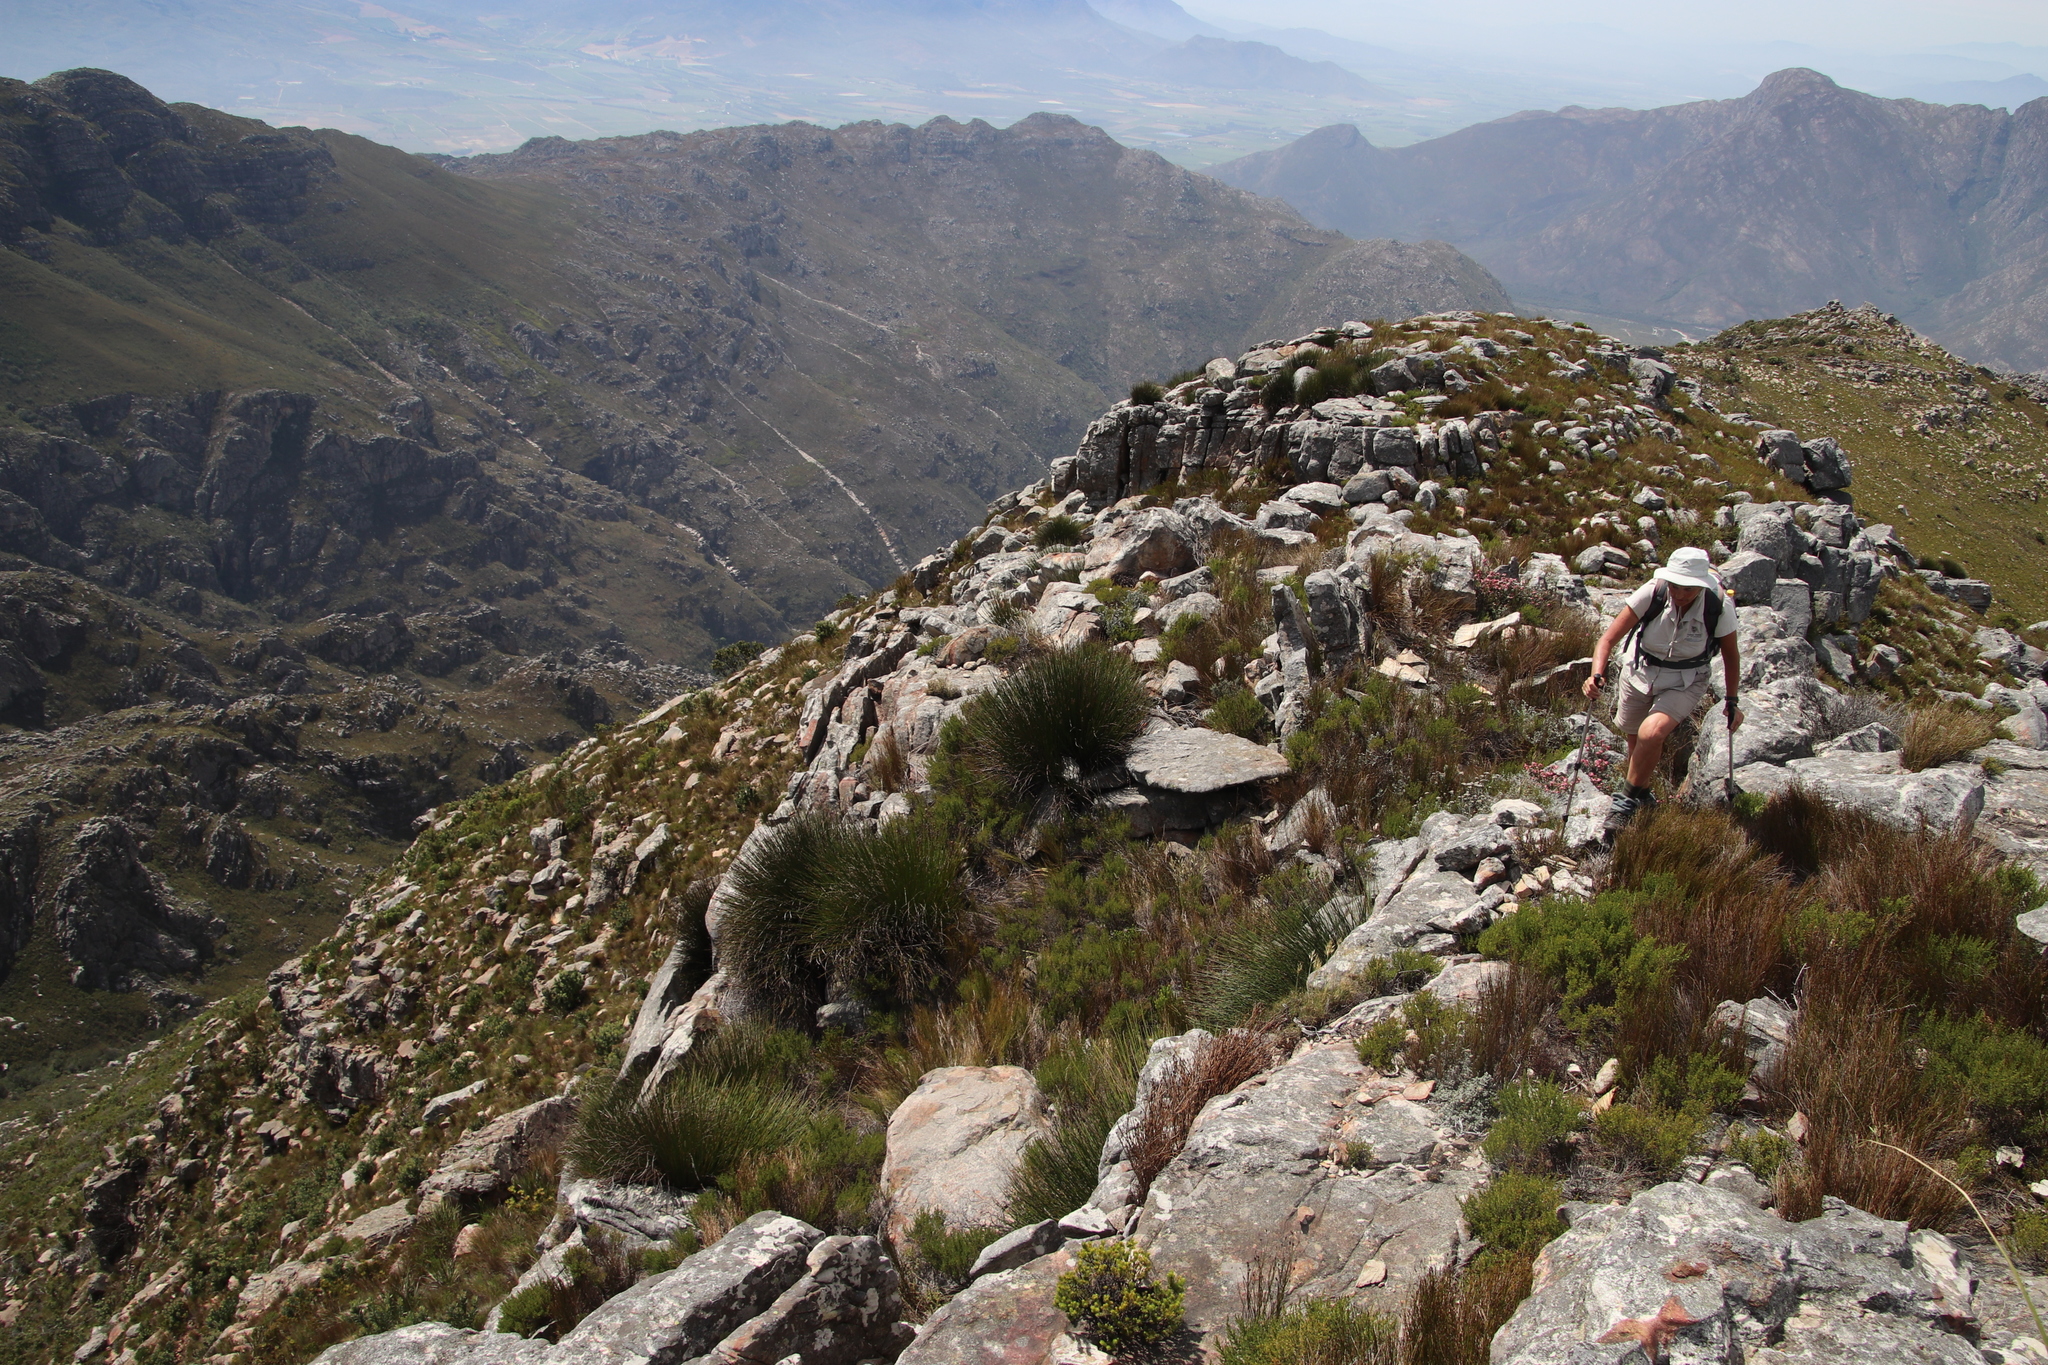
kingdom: Plantae
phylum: Tracheophyta
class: Liliopsida
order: Poales
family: Restionaceae
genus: Elegia
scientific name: Elegia marlothii
